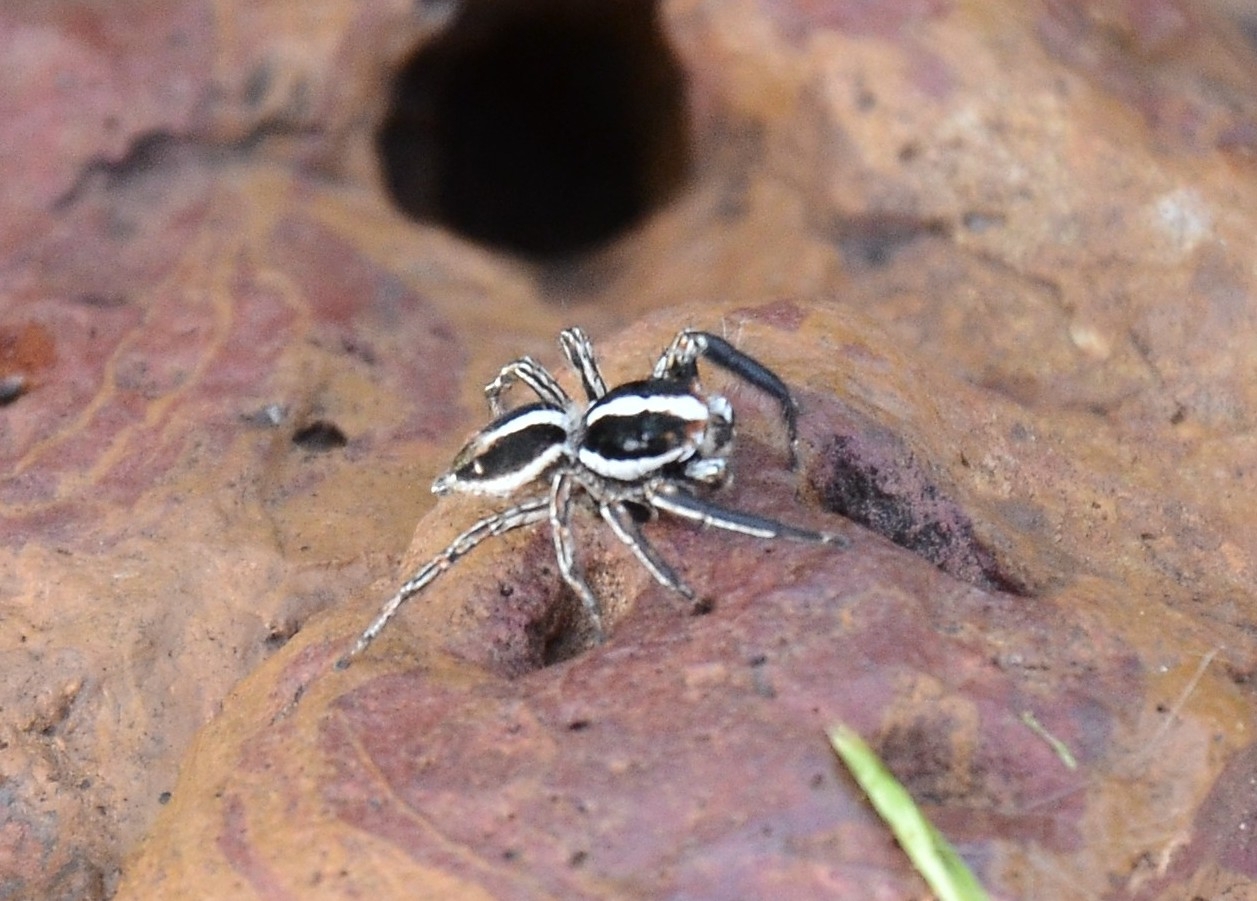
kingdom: Animalia
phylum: Arthropoda
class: Arachnida
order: Araneae
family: Salticidae
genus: Plexippus
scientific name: Plexippus paykulli
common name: Pantropical jumper
